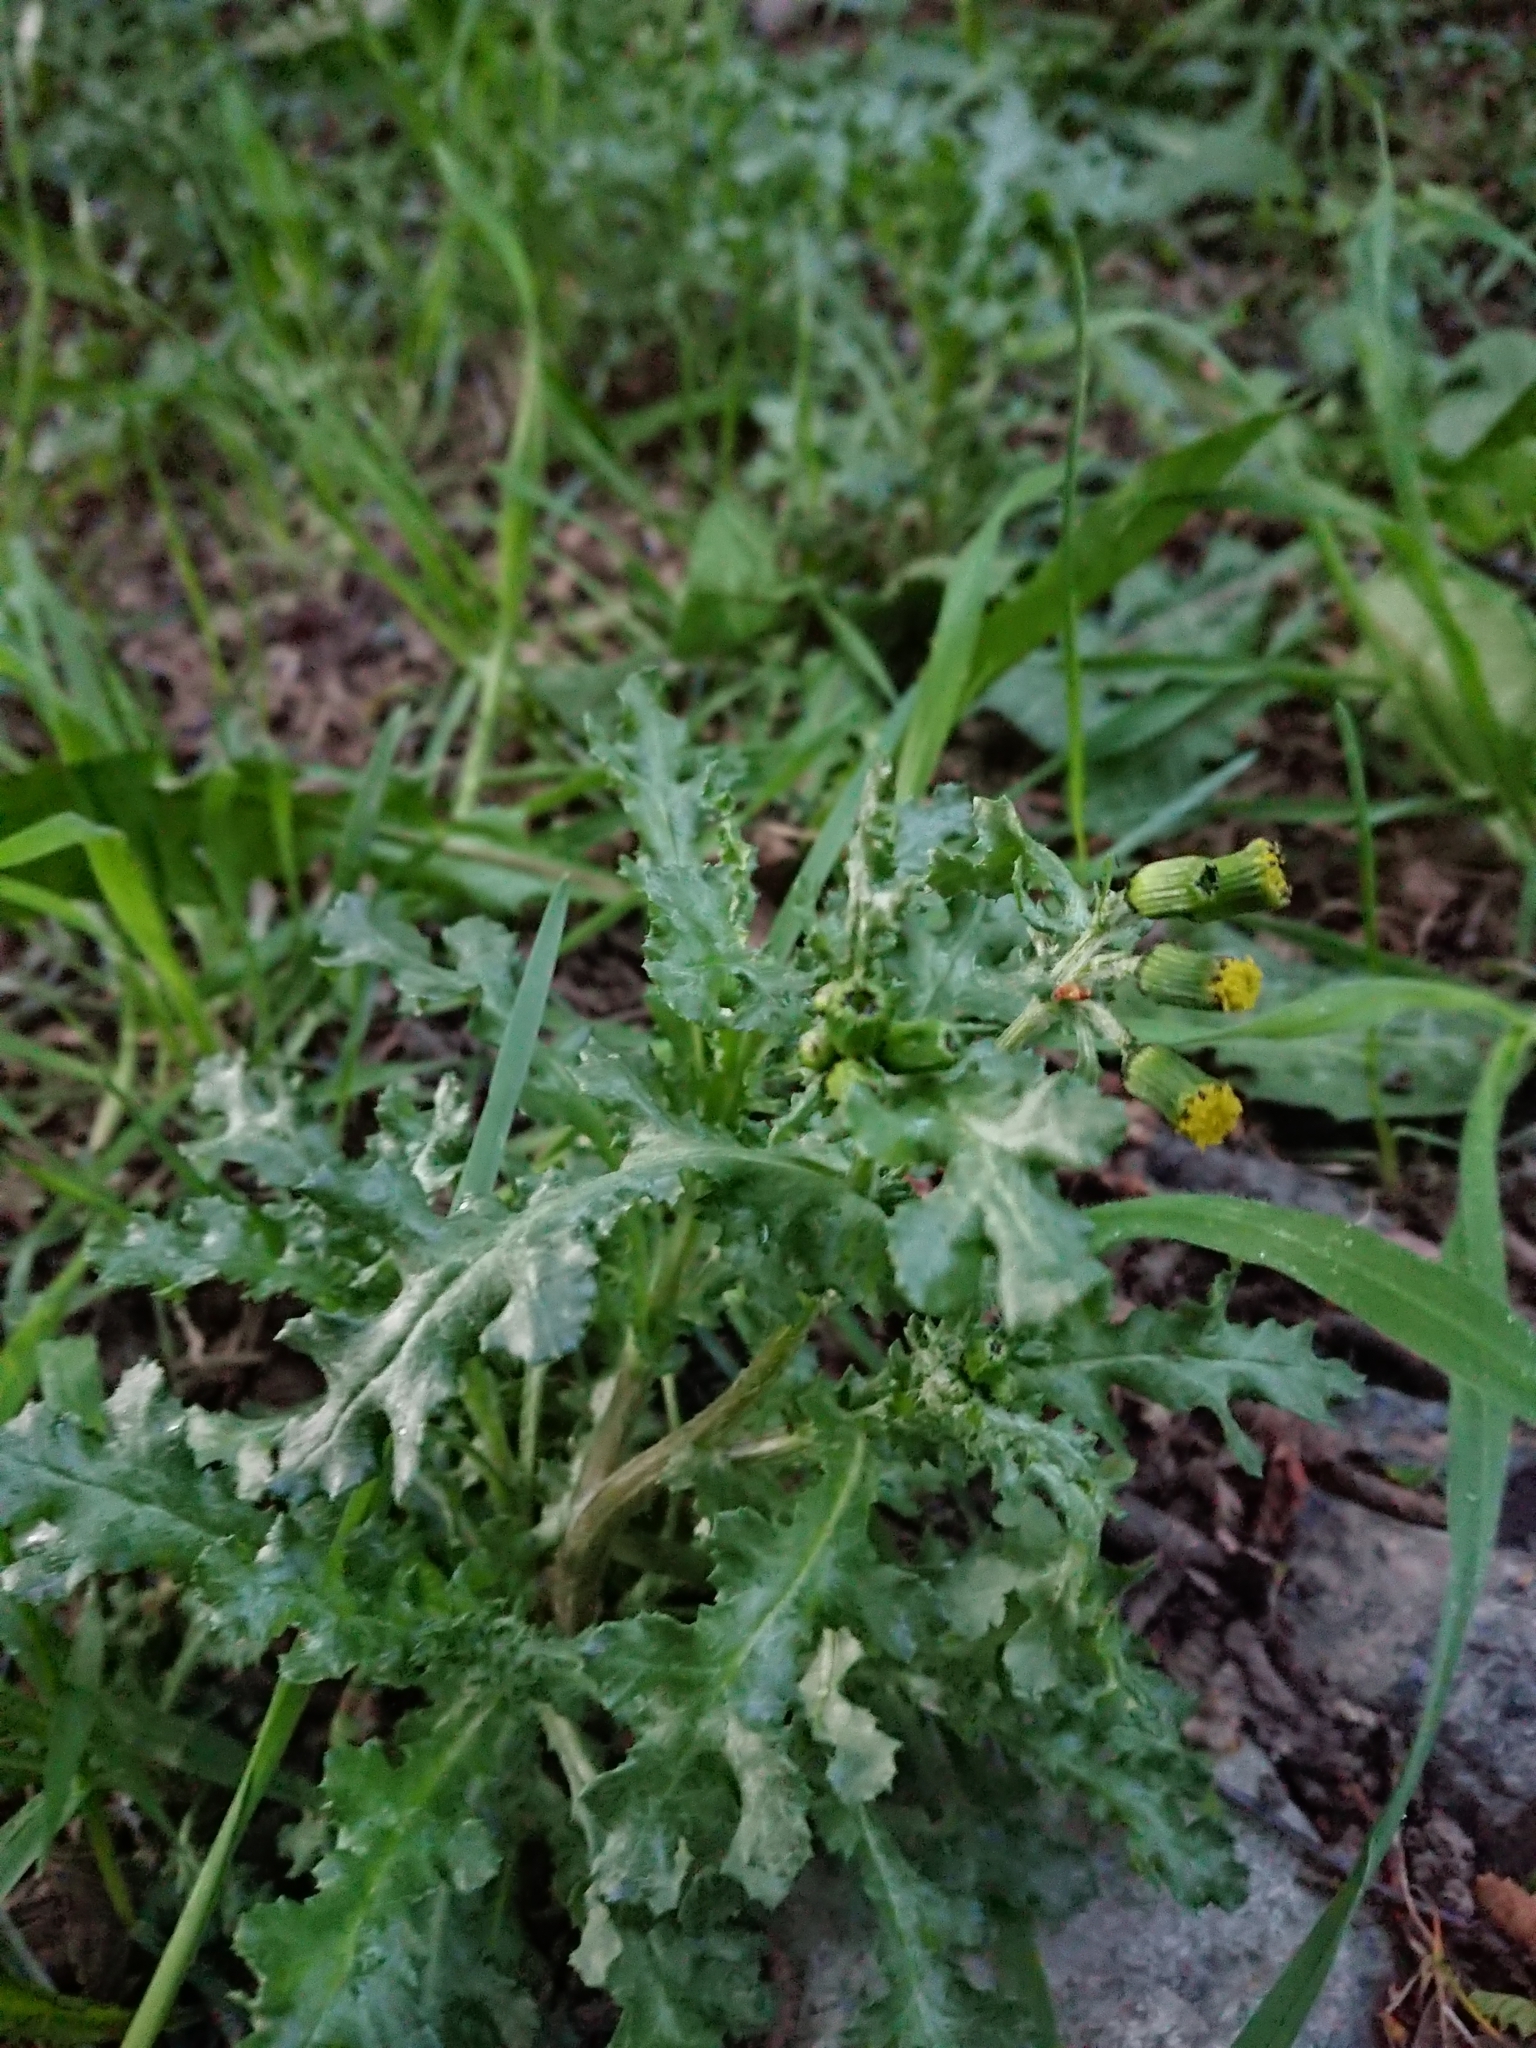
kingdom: Plantae
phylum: Tracheophyta
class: Magnoliopsida
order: Asterales
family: Asteraceae
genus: Senecio
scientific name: Senecio vulgaris
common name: Old-man-in-the-spring
